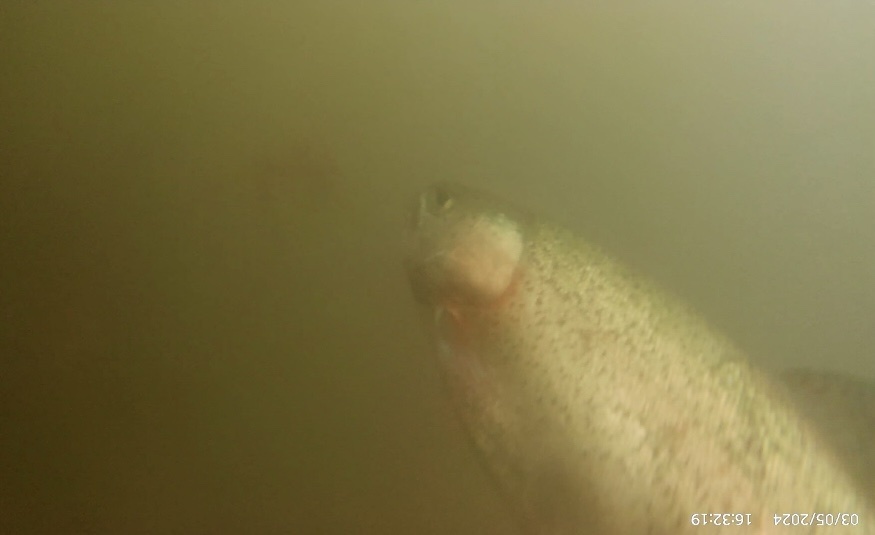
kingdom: Animalia
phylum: Chordata
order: Salmoniformes
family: Salmonidae
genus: Oncorhynchus
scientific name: Oncorhynchus mykiss
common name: Rainbow trout
